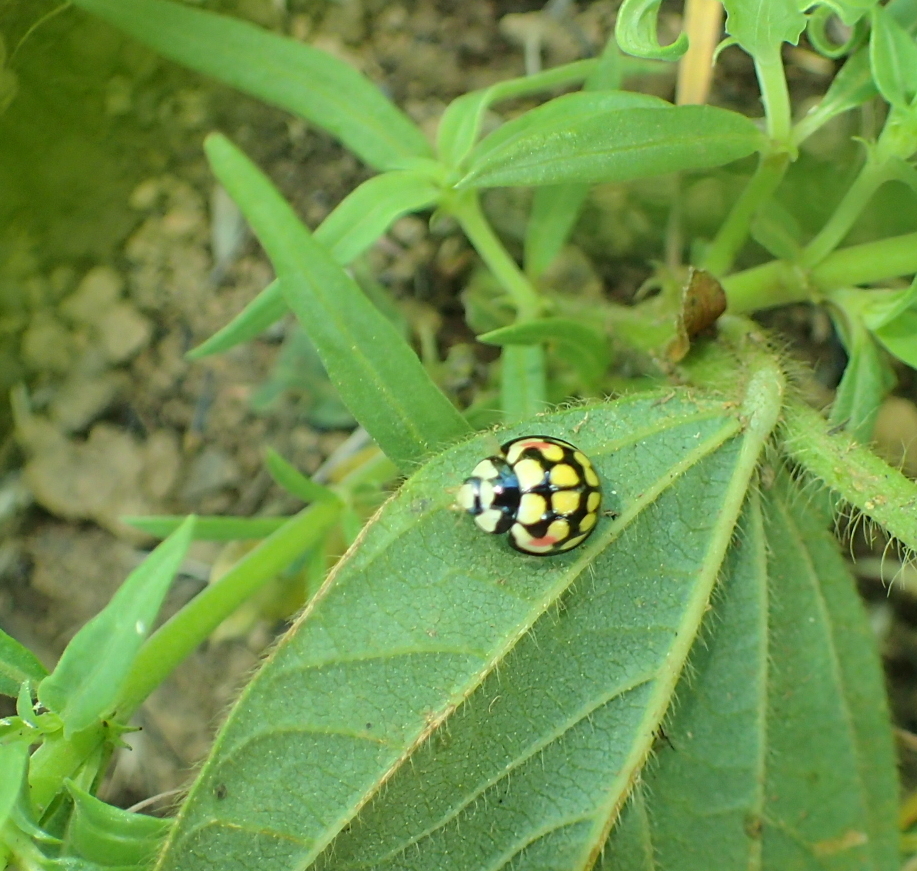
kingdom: Animalia
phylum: Arthropoda
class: Insecta
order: Coleoptera
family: Coccinellidae
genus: Cheilomenes
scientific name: Cheilomenes sulphurea
